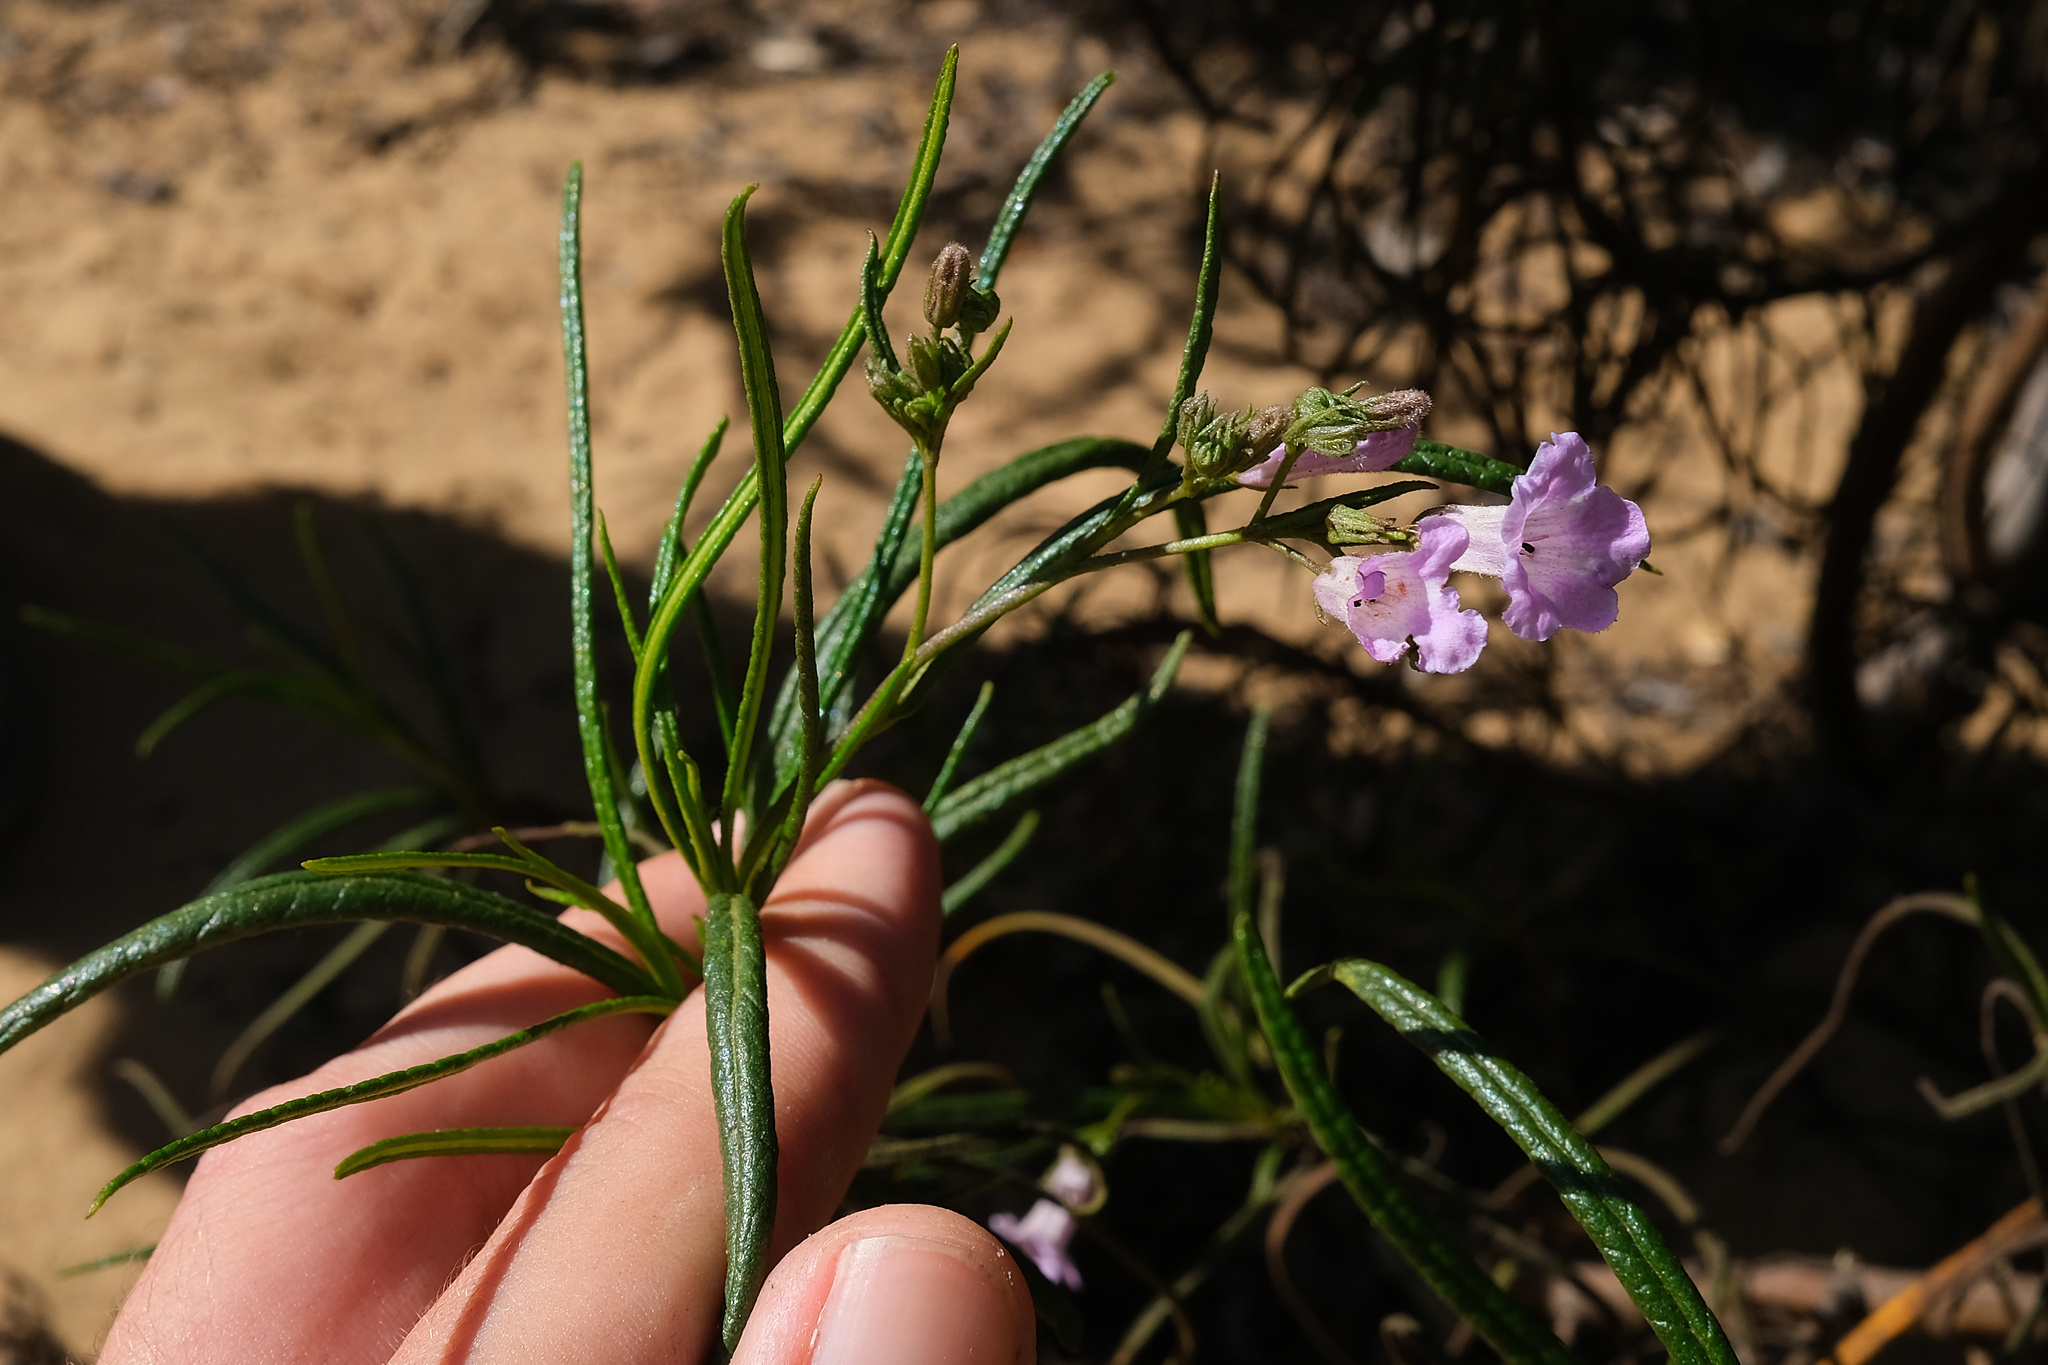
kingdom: Plantae
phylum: Tracheophyta
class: Magnoliopsida
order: Boraginales
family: Namaceae
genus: Eriodictyon
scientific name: Eriodictyon altissimum
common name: Indian knob mountain balm
